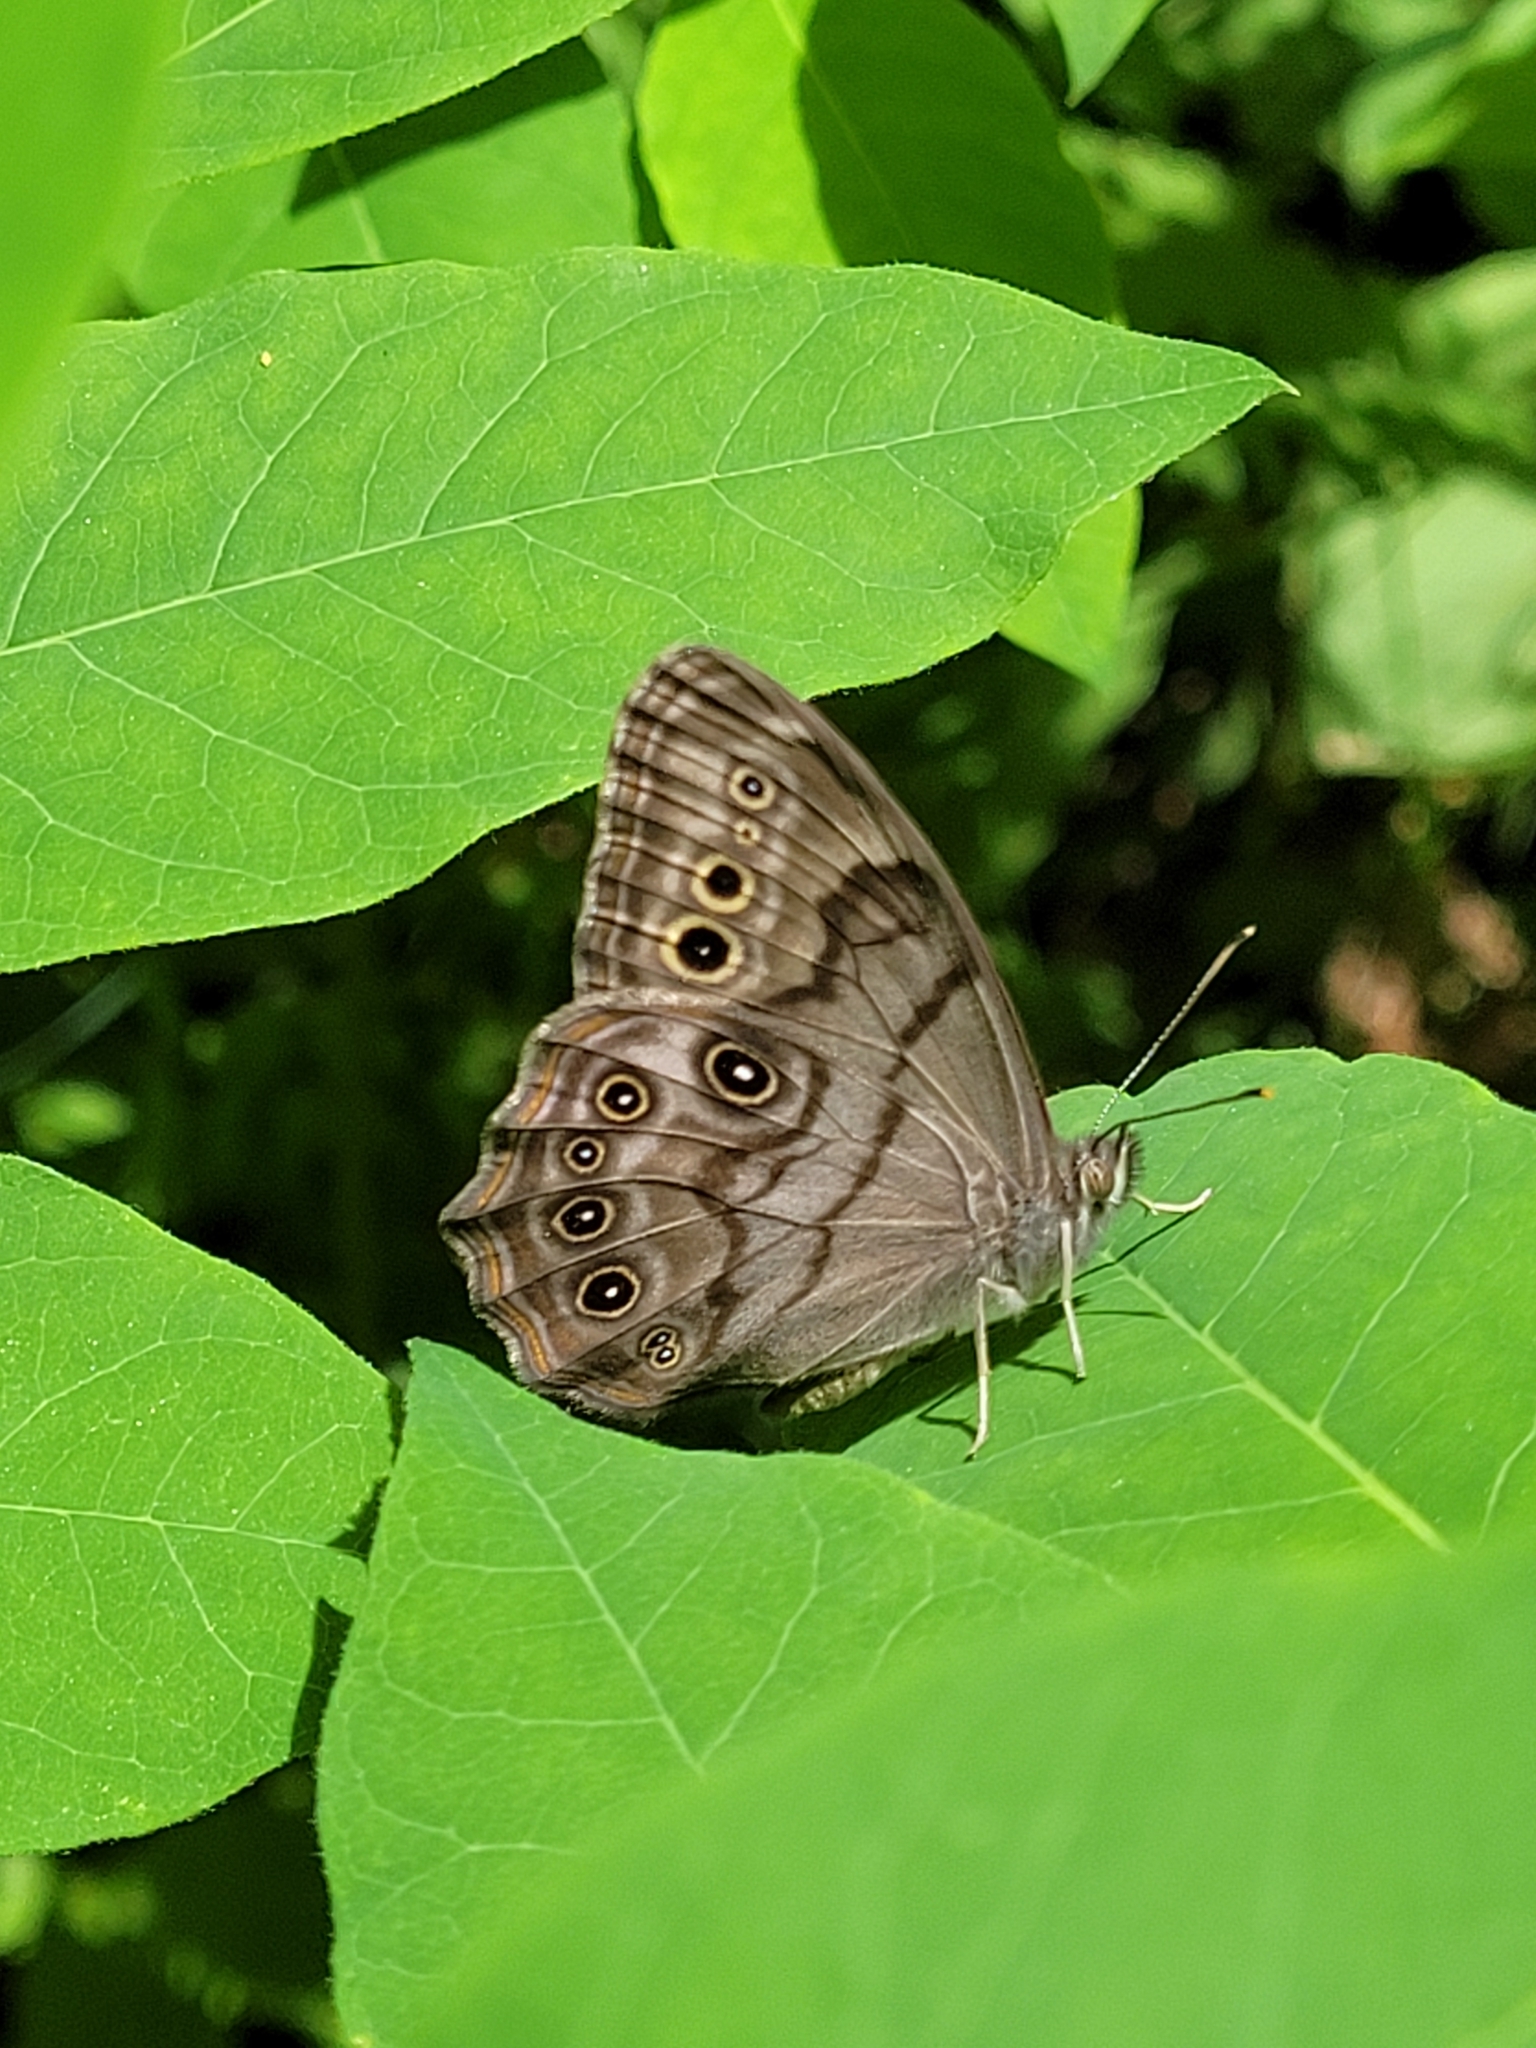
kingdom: Animalia
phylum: Arthropoda
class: Insecta
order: Lepidoptera
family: Nymphalidae
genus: Lethe
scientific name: Lethe anthedon
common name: Northern pearly-eye
